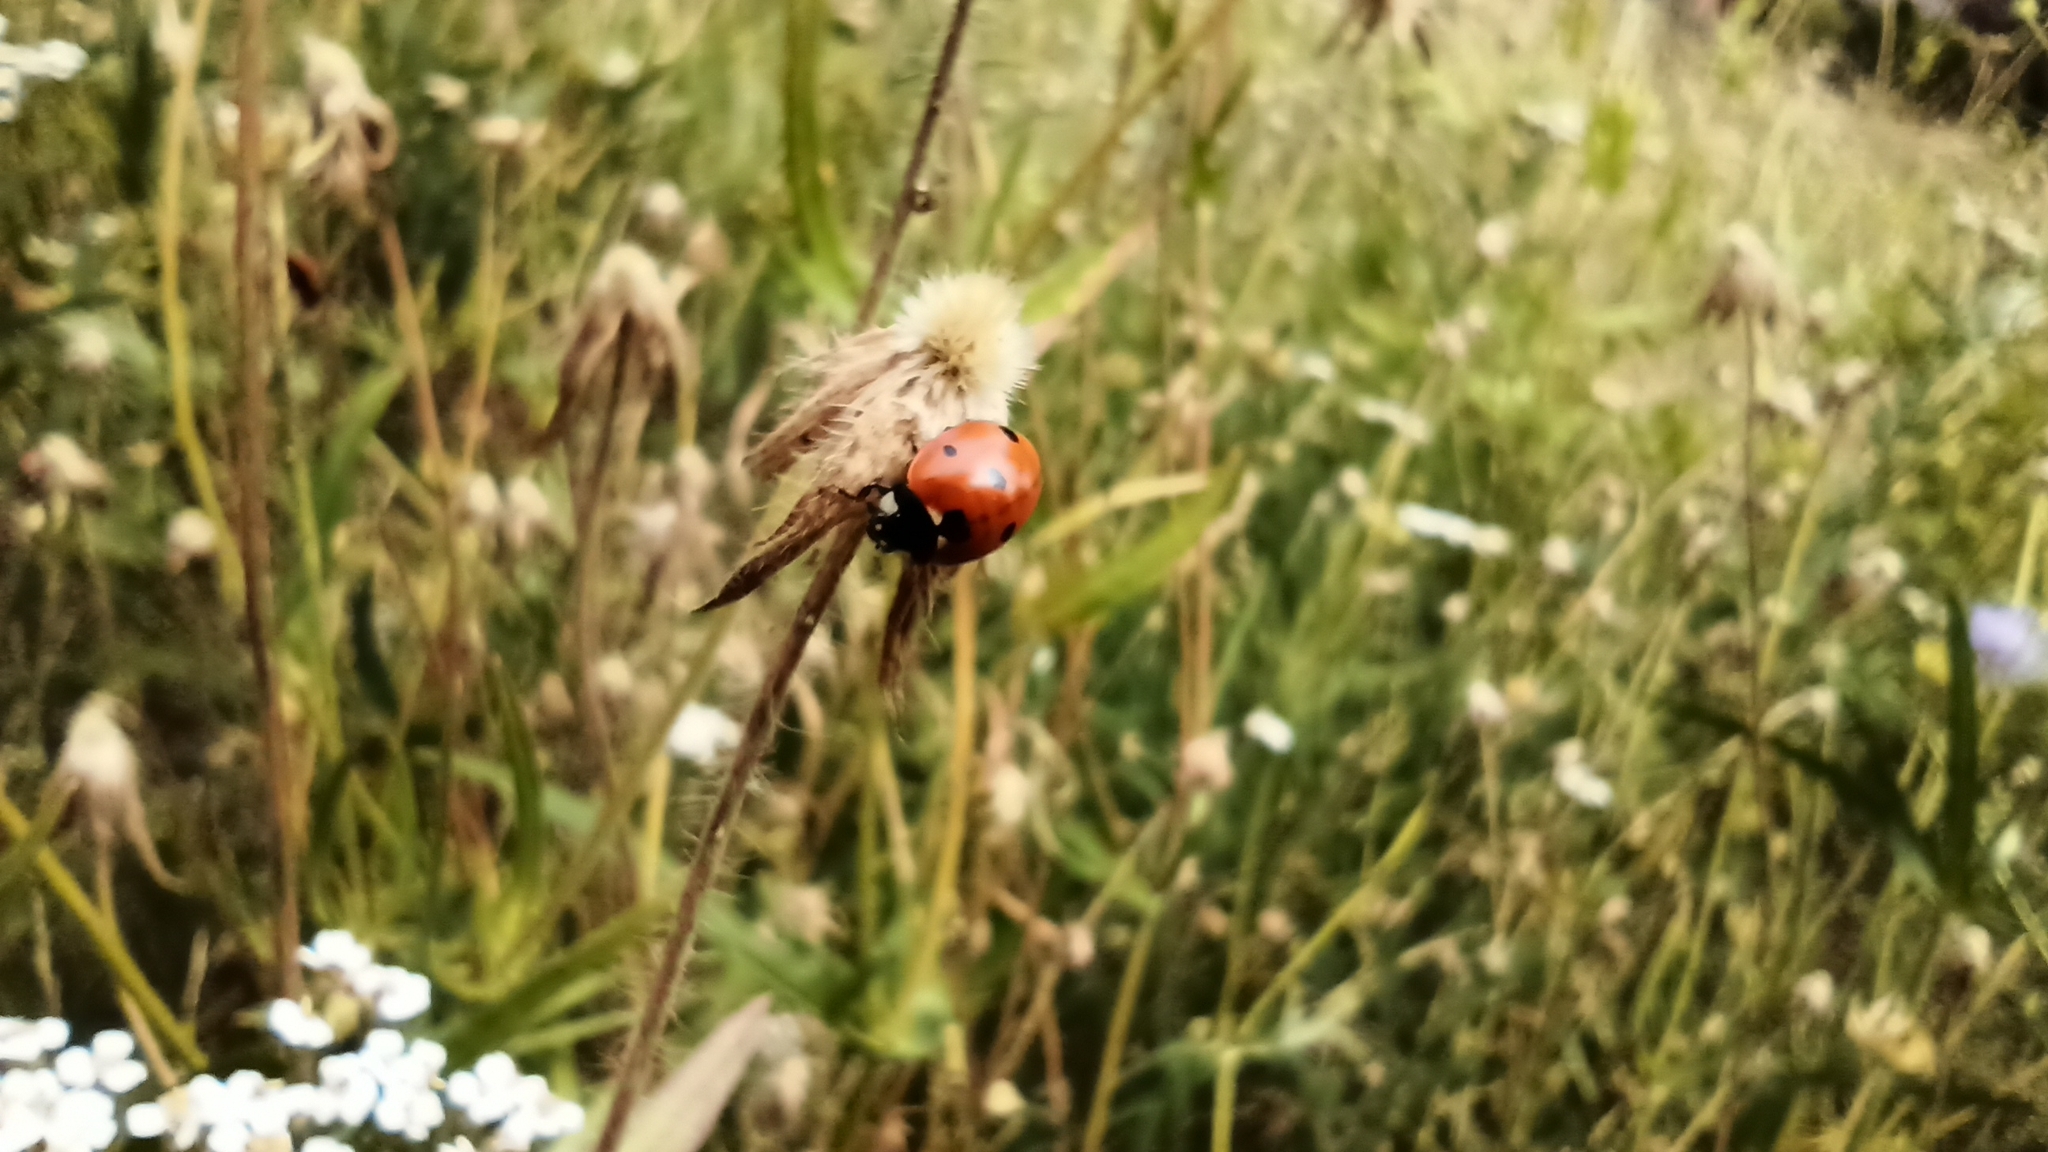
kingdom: Animalia
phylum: Arthropoda
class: Insecta
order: Coleoptera
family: Coccinellidae
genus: Coccinella
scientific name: Coccinella septempunctata
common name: Sevenspotted lady beetle
